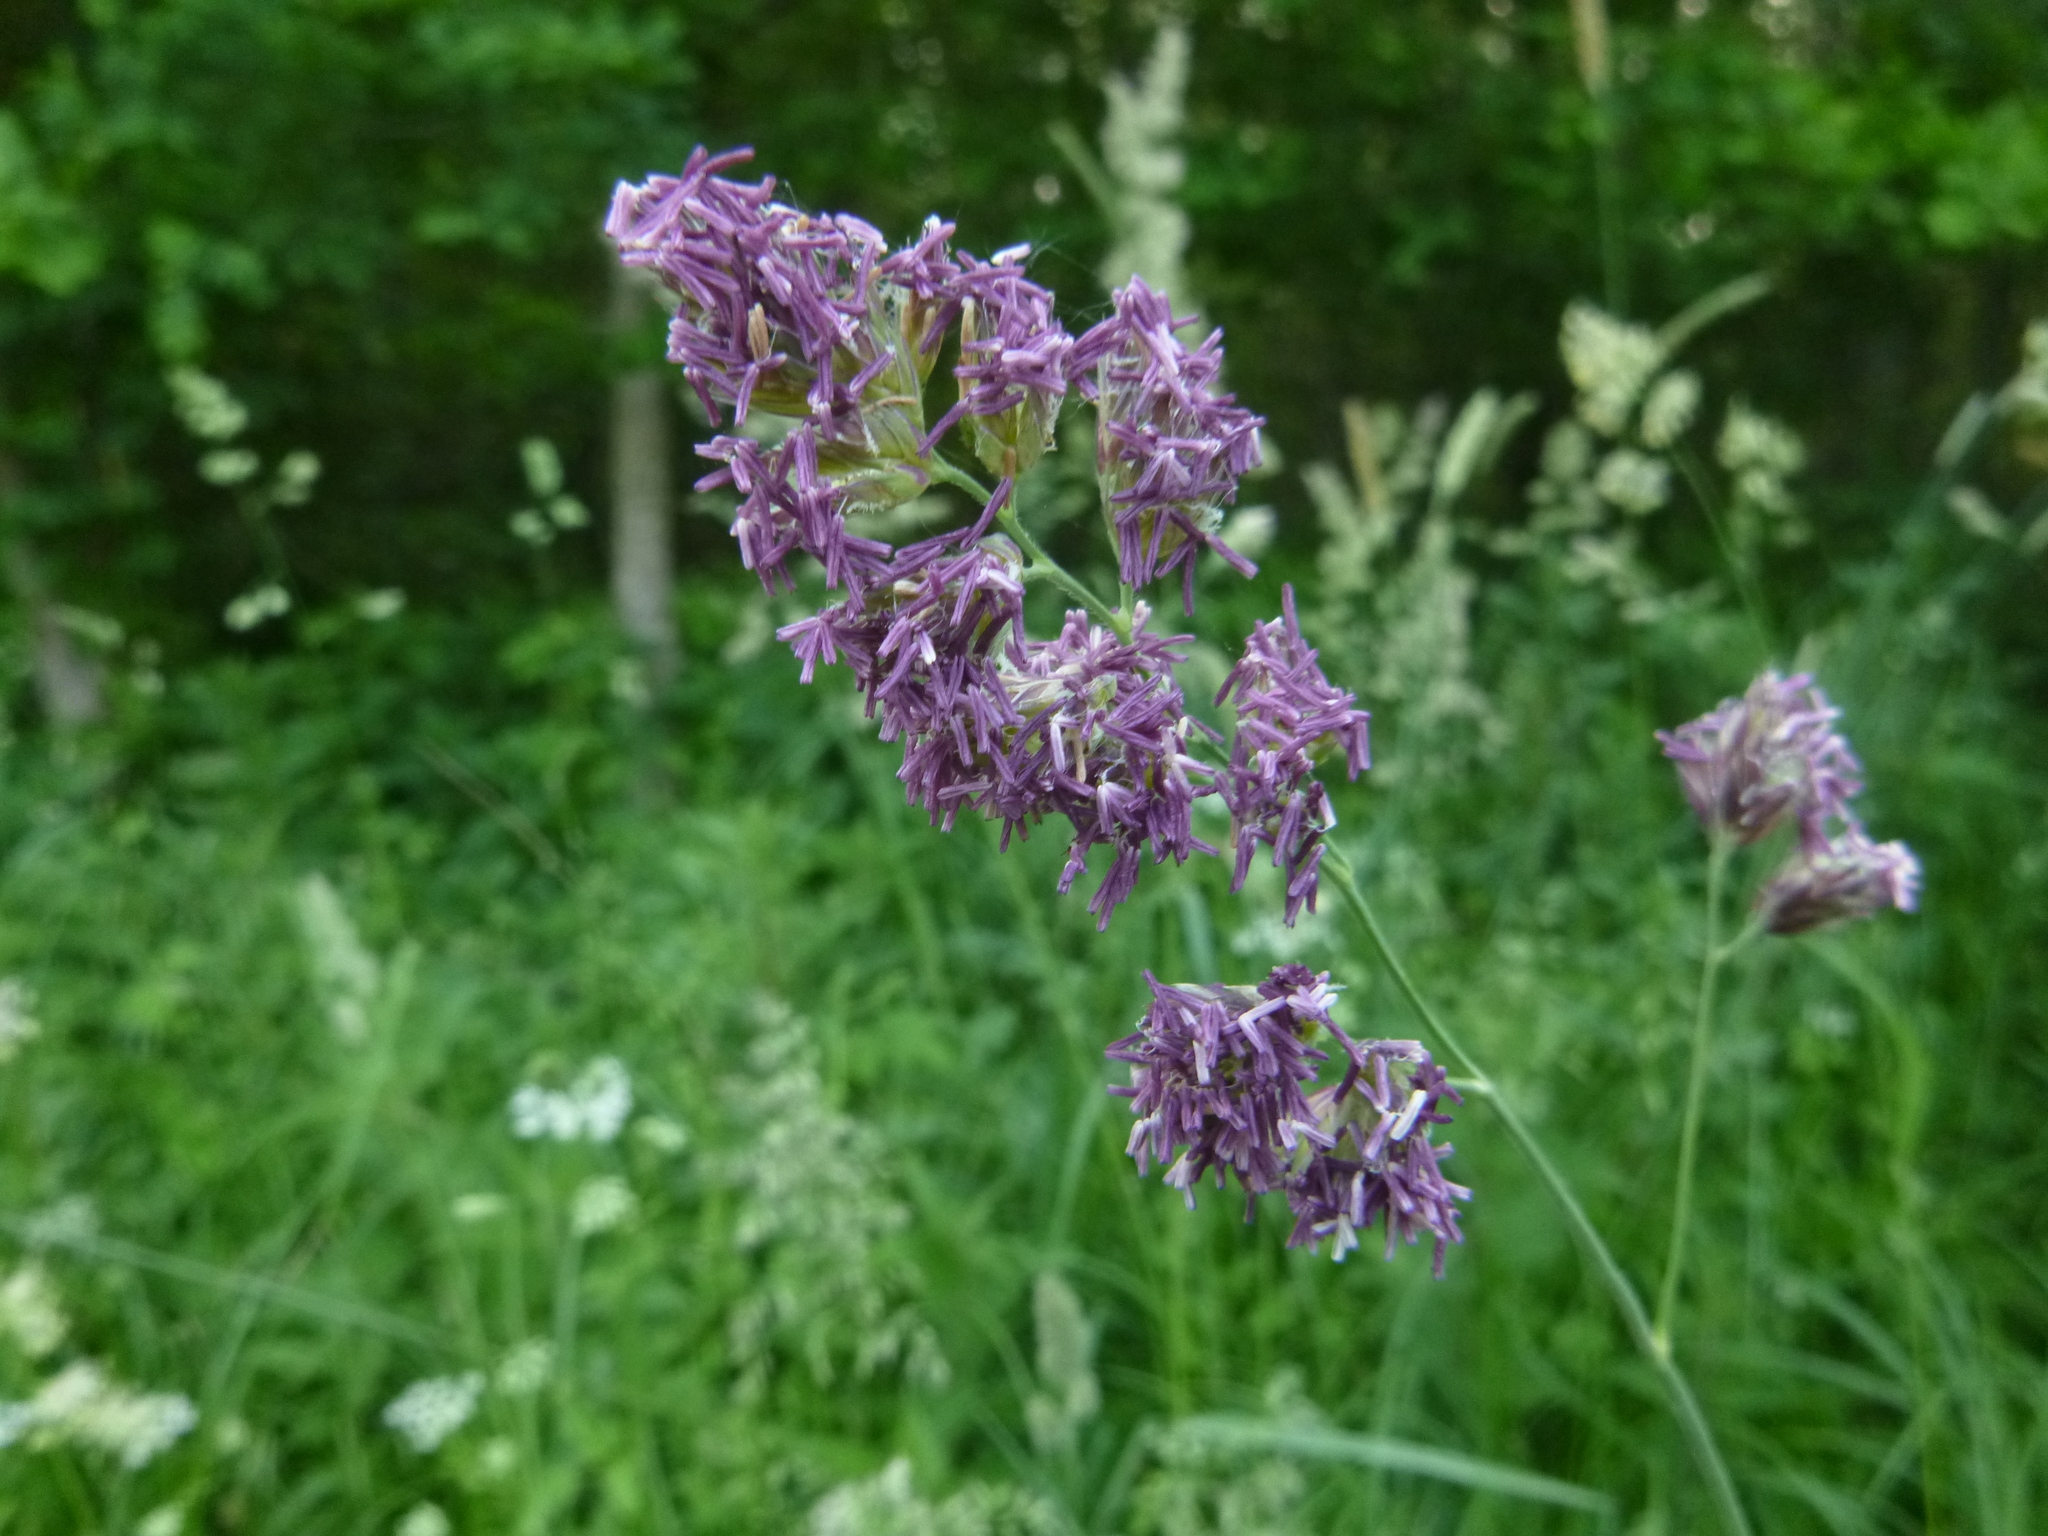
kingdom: Plantae
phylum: Tracheophyta
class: Liliopsida
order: Poales
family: Poaceae
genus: Dactylis
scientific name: Dactylis glomerata
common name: Orchardgrass
